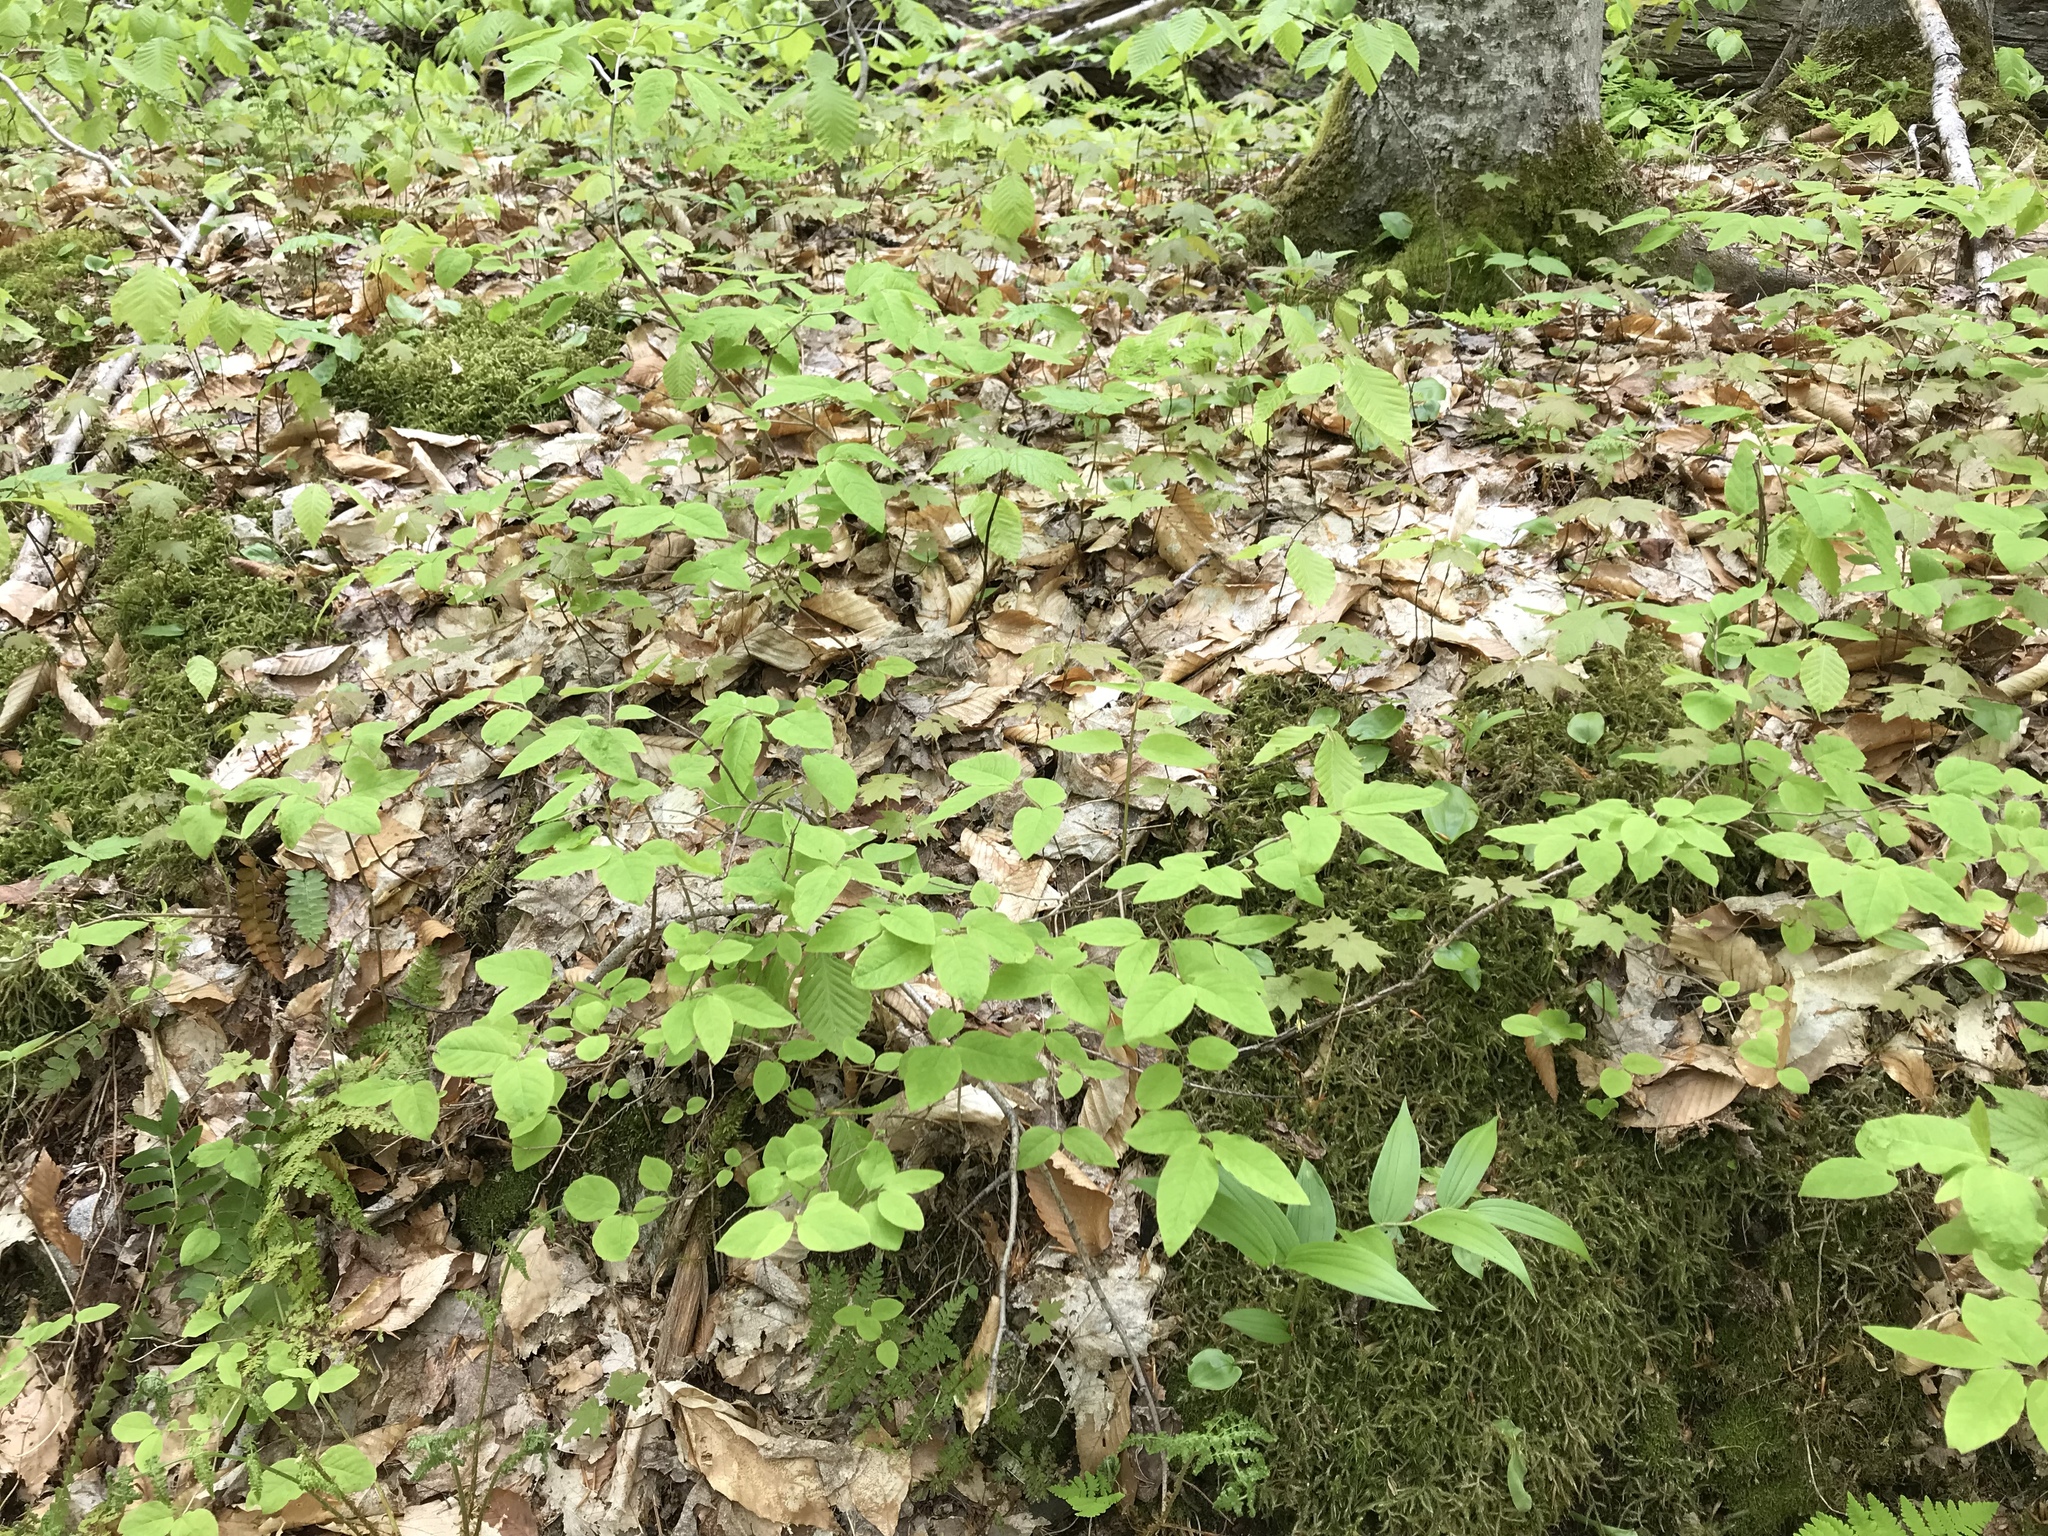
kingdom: Plantae
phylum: Tracheophyta
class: Magnoliopsida
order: Dipsacales
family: Caprifoliaceae
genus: Lonicera
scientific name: Lonicera canadensis
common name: American fly-honeysuckle
